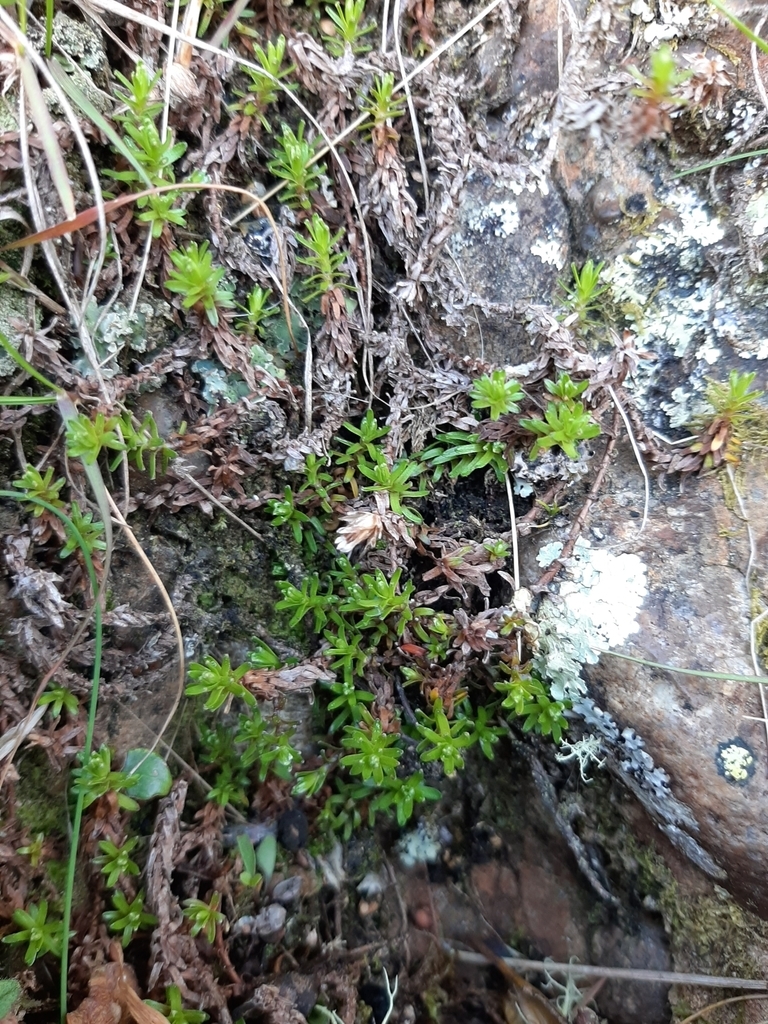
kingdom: Plantae
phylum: Tracheophyta
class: Magnoliopsida
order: Asterales
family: Asteraceae
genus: Raoulia
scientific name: Raoulia glabra
